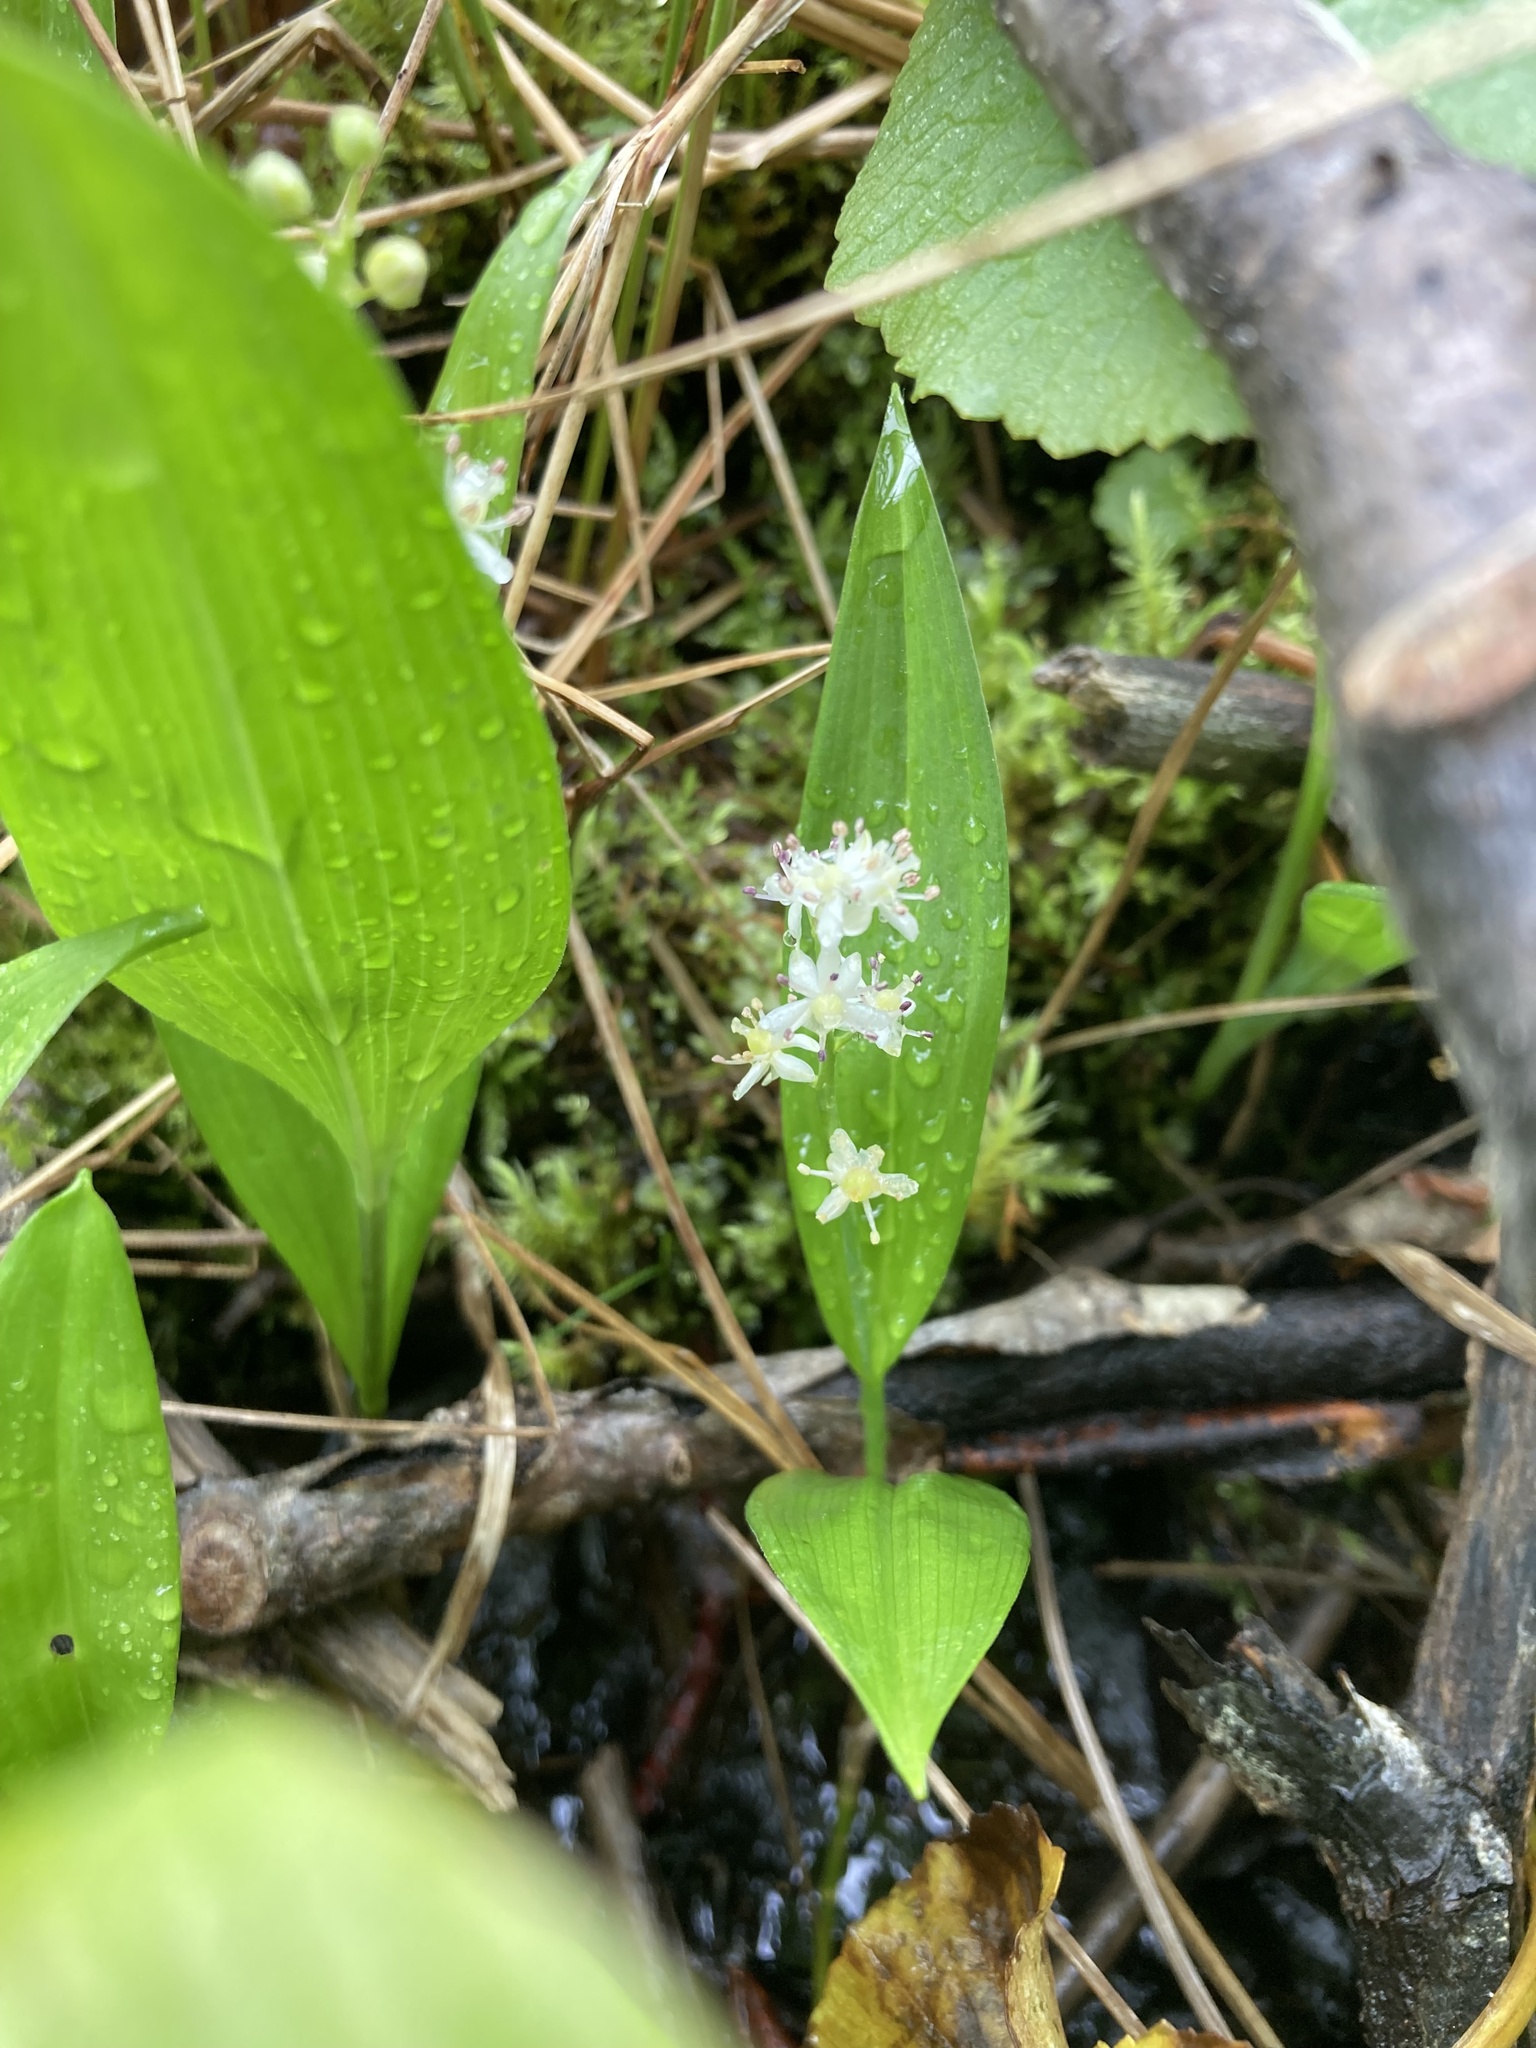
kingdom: Plantae
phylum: Tracheophyta
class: Liliopsida
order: Asparagales
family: Asparagaceae
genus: Maianthemum
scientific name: Maianthemum trifolium
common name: Swamp false solomon's seal
